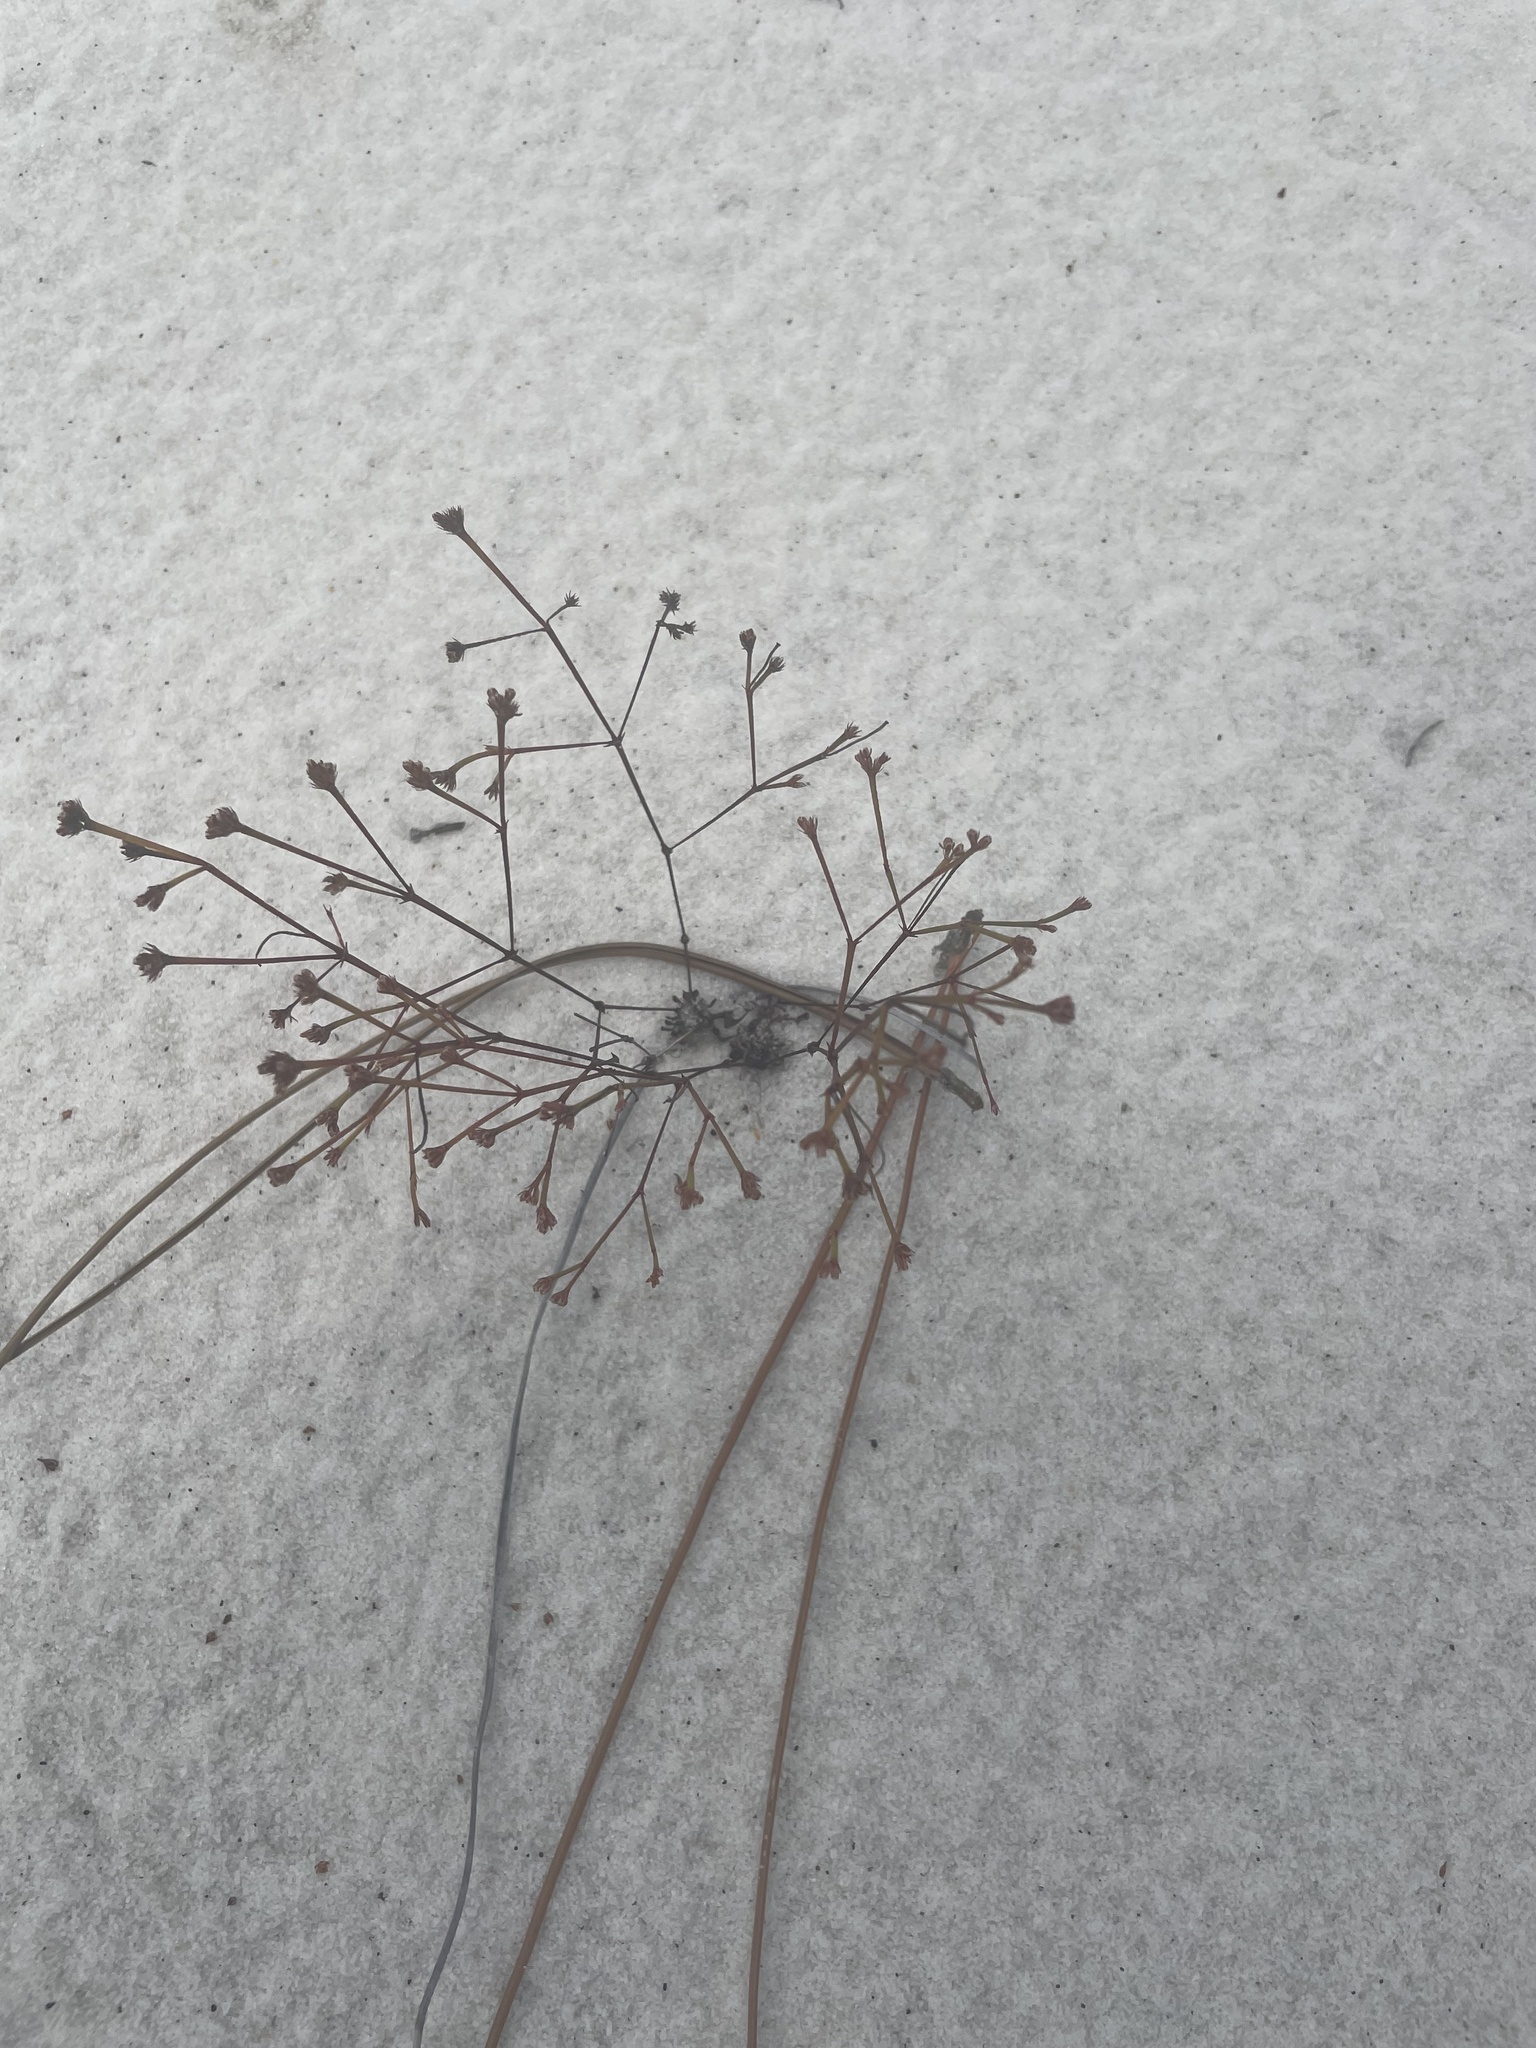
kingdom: Plantae
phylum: Tracheophyta
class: Magnoliopsida
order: Caryophyllales
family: Caryophyllaceae
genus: Stipulicida
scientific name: Stipulicida setacea
